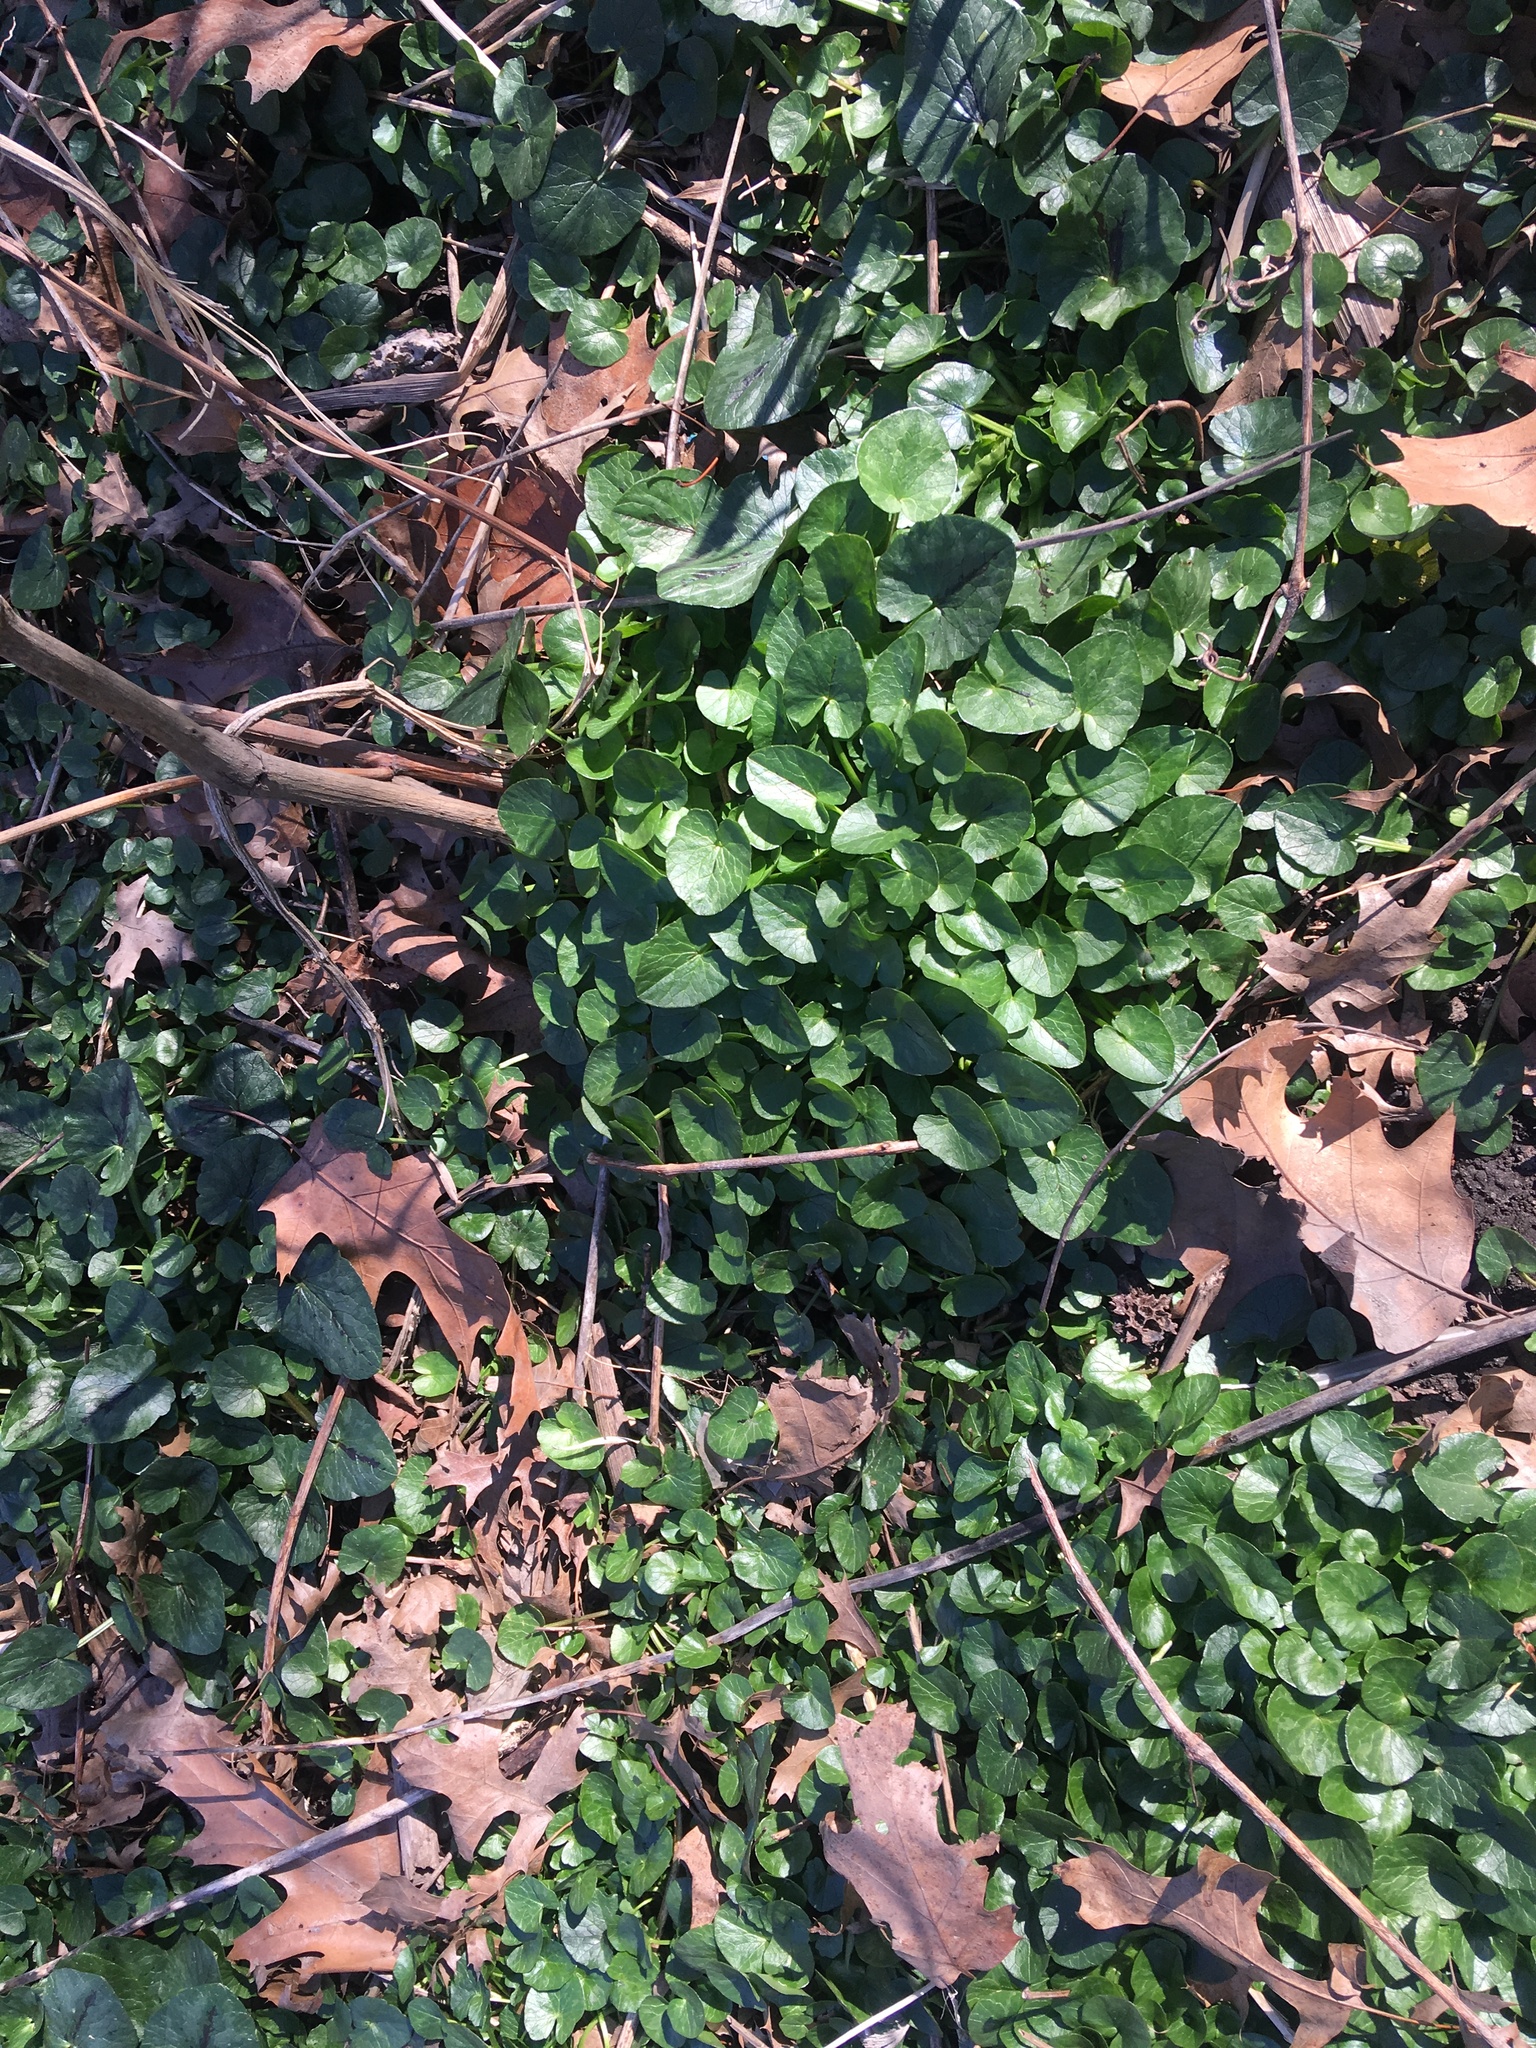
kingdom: Plantae
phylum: Tracheophyta
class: Magnoliopsida
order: Ranunculales
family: Ranunculaceae
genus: Ficaria
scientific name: Ficaria verna
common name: Lesser celandine
